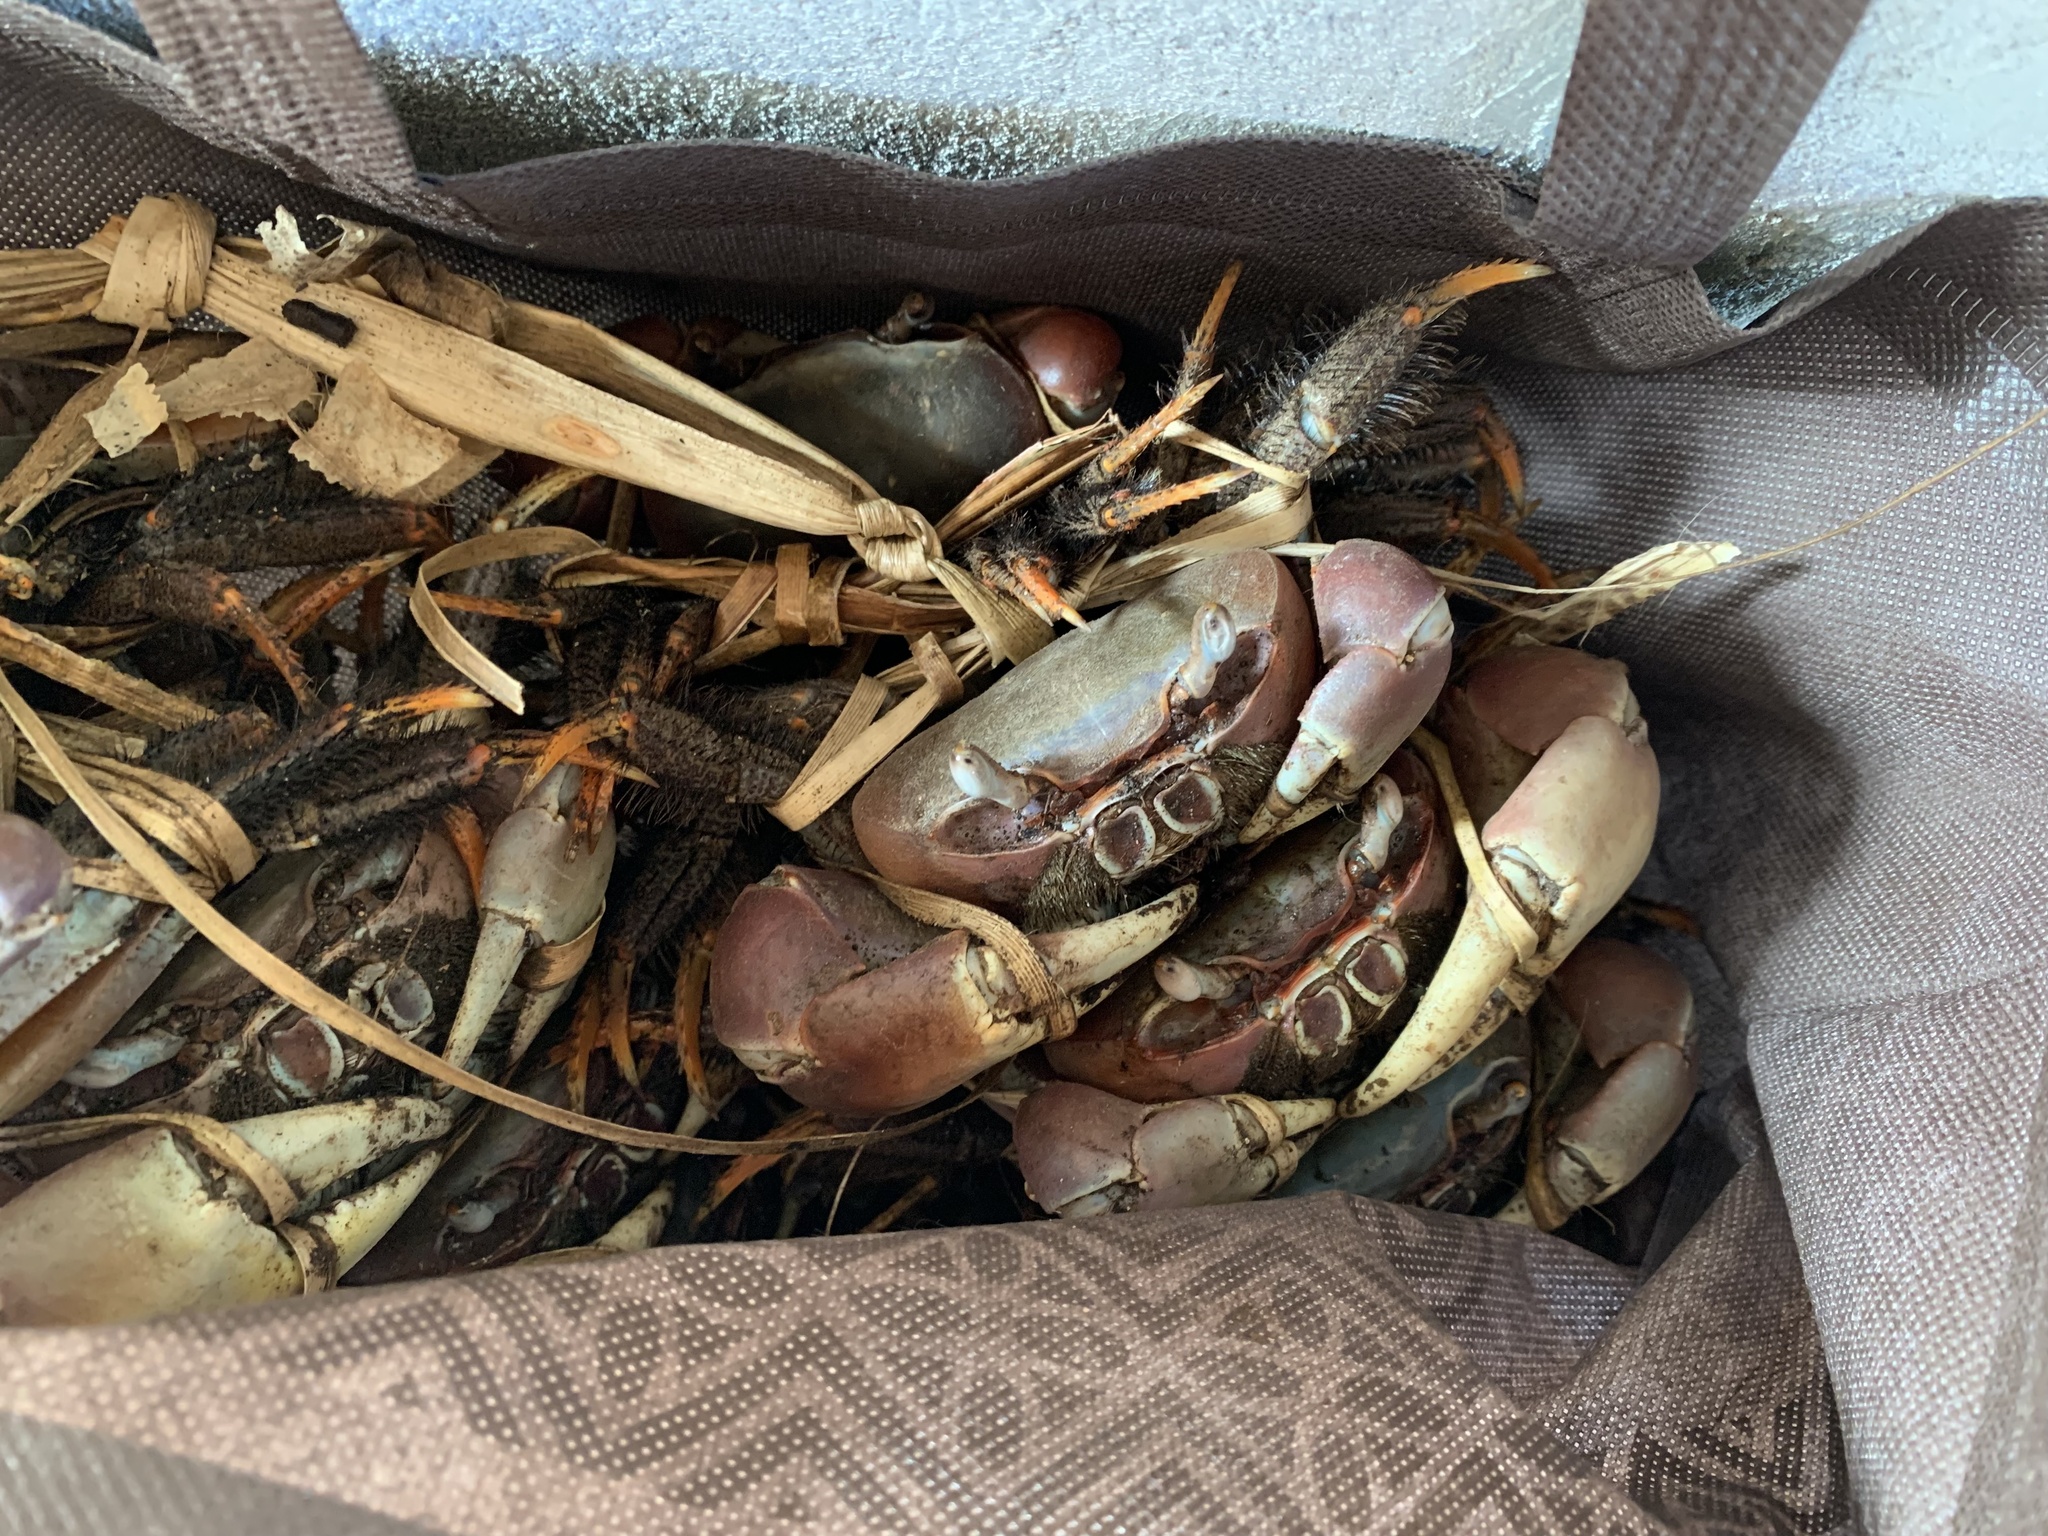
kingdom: Animalia
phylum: Arthropoda
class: Malacostraca
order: Decapoda
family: Gecarcinidae
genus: Cardisoma
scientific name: Cardisoma carnifex
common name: Brown land crab
